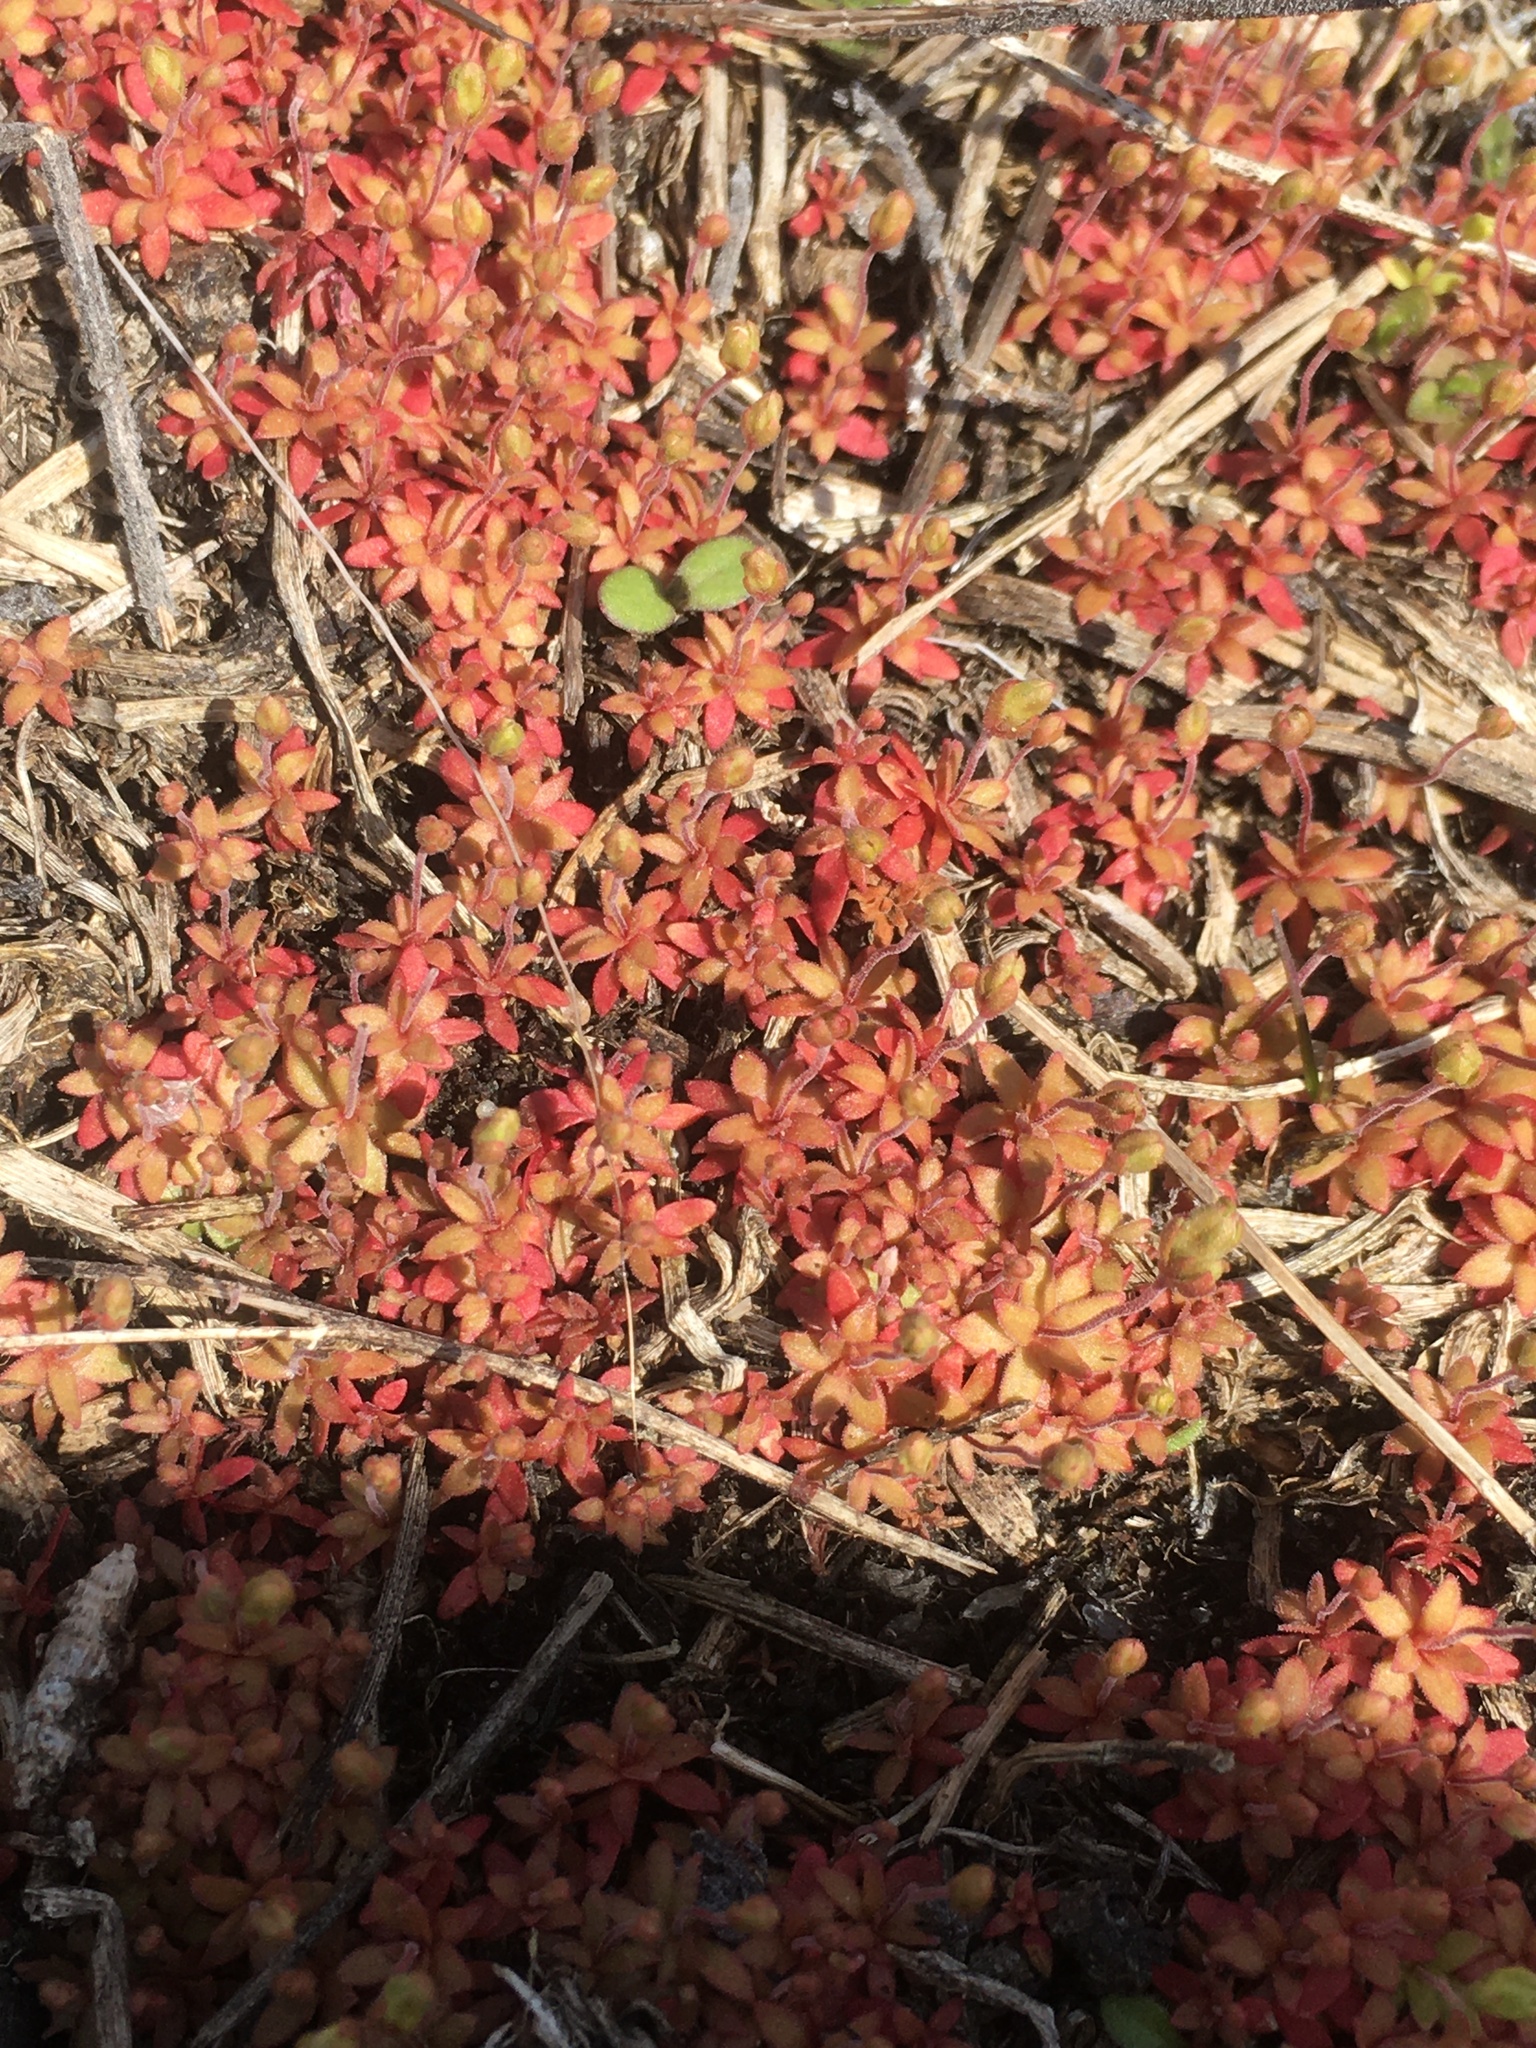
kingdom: Plantae
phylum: Tracheophyta
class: Magnoliopsida
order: Ericales
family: Primulaceae
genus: Androsace
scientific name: Androsace occidentalis
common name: West rock-jasmine
